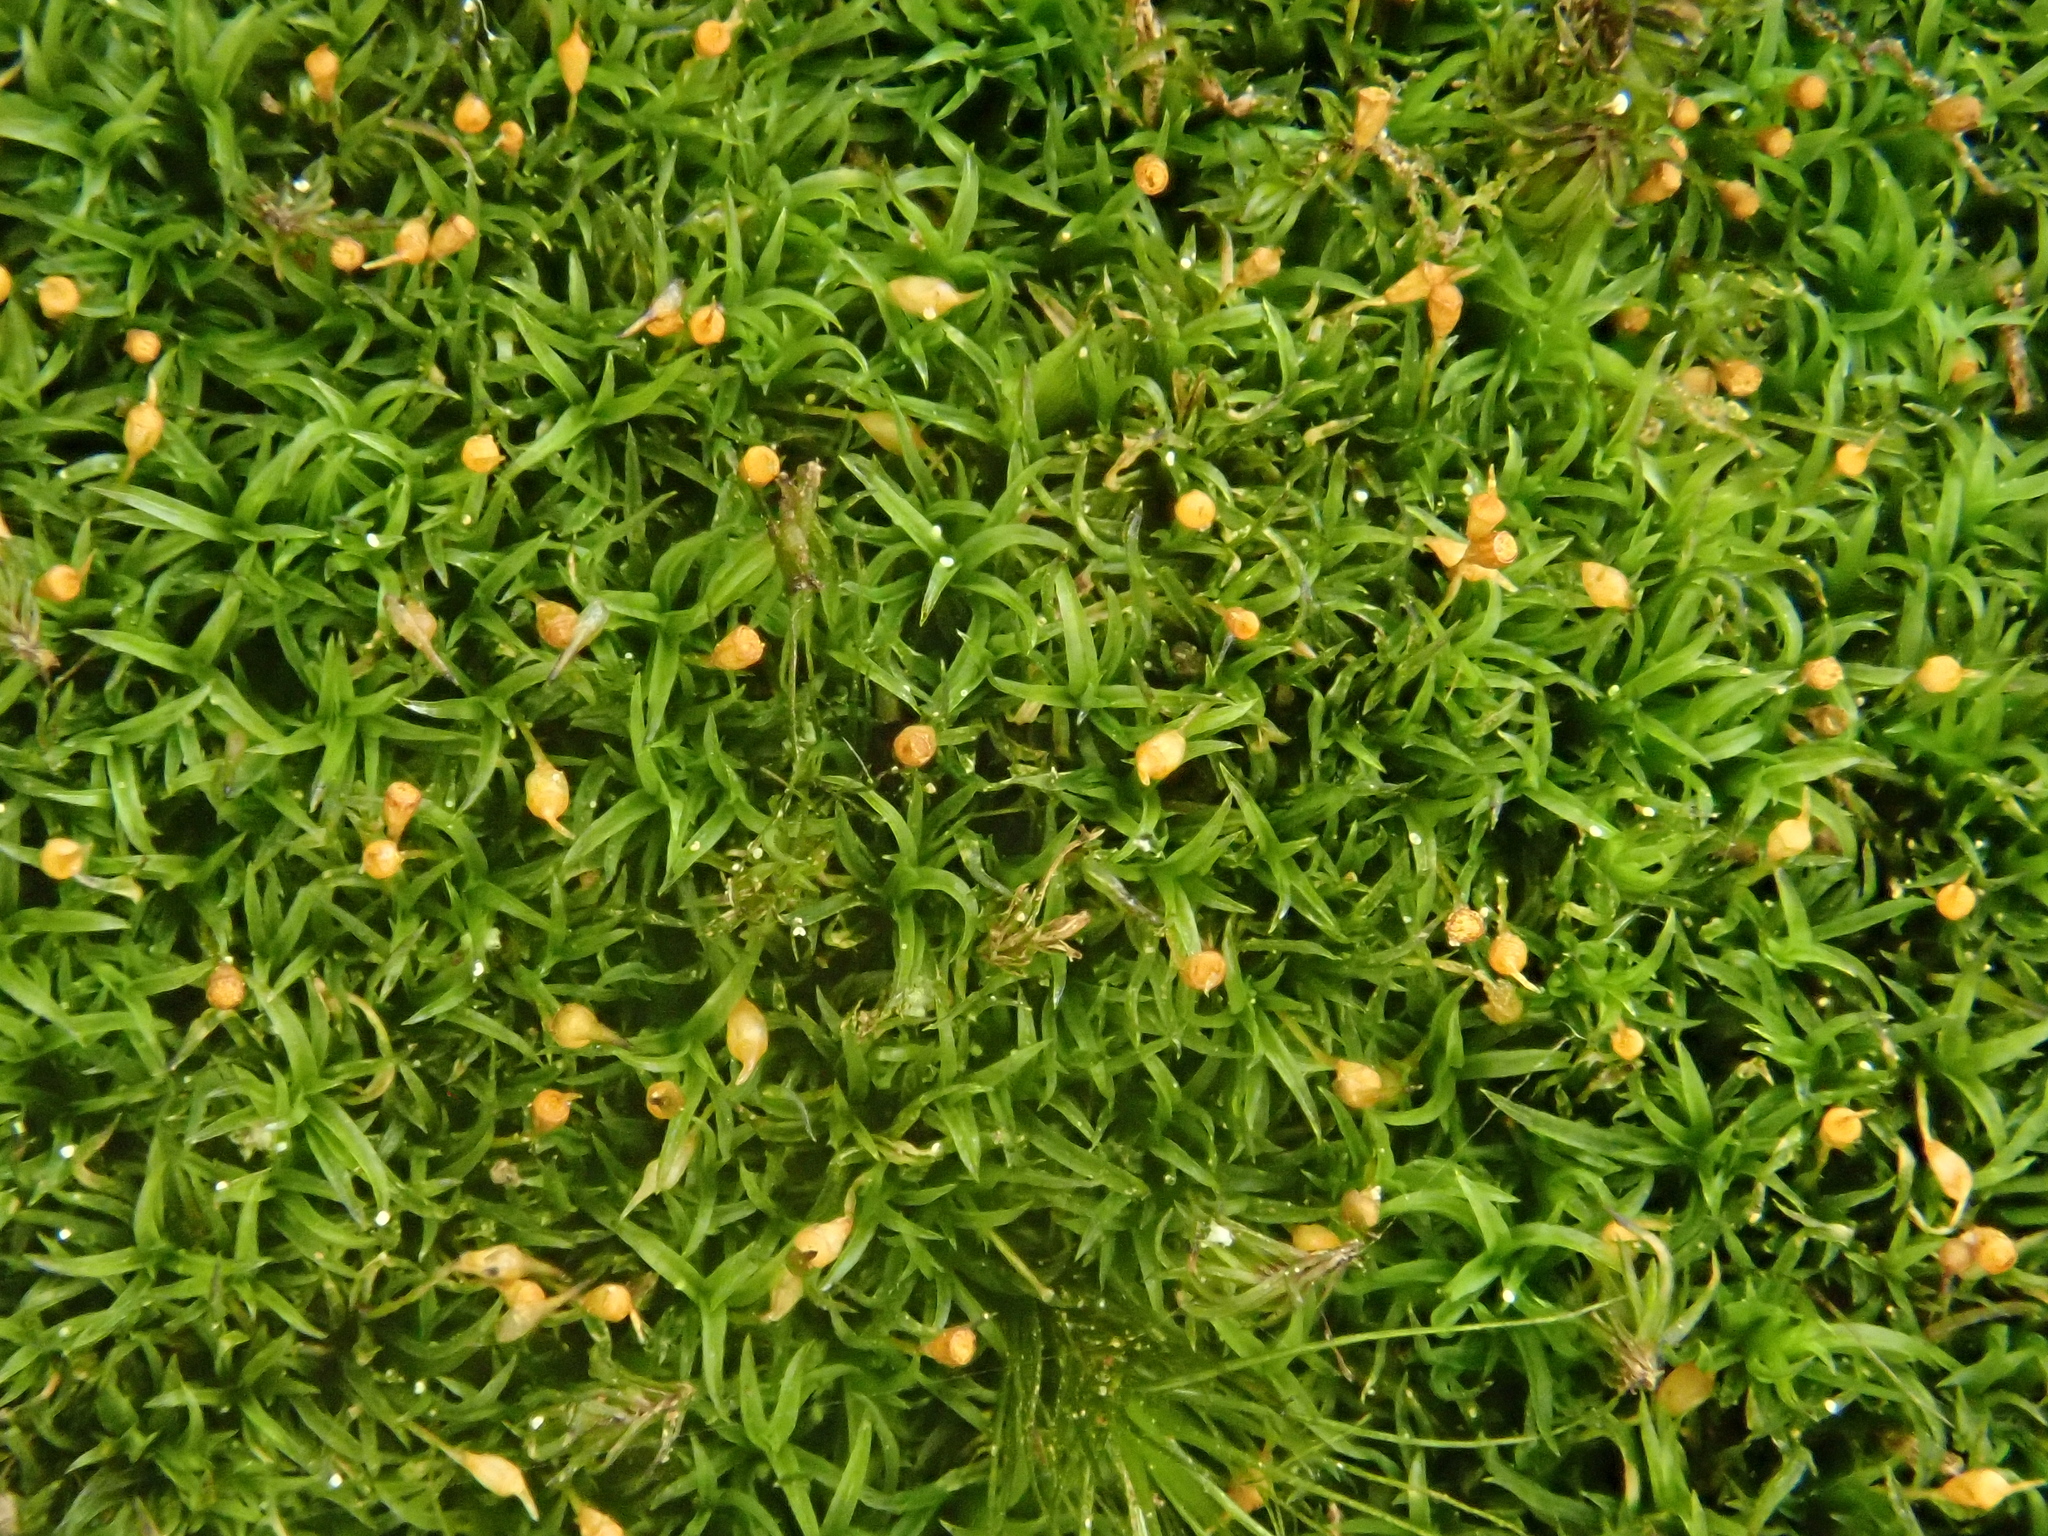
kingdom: Plantae
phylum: Bryophyta
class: Bryopsida
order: Dicranales
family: Rhabdoweisiaceae
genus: Rhabdoweisia
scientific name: Rhabdoweisia fugax
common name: Dwarf streak-moss
